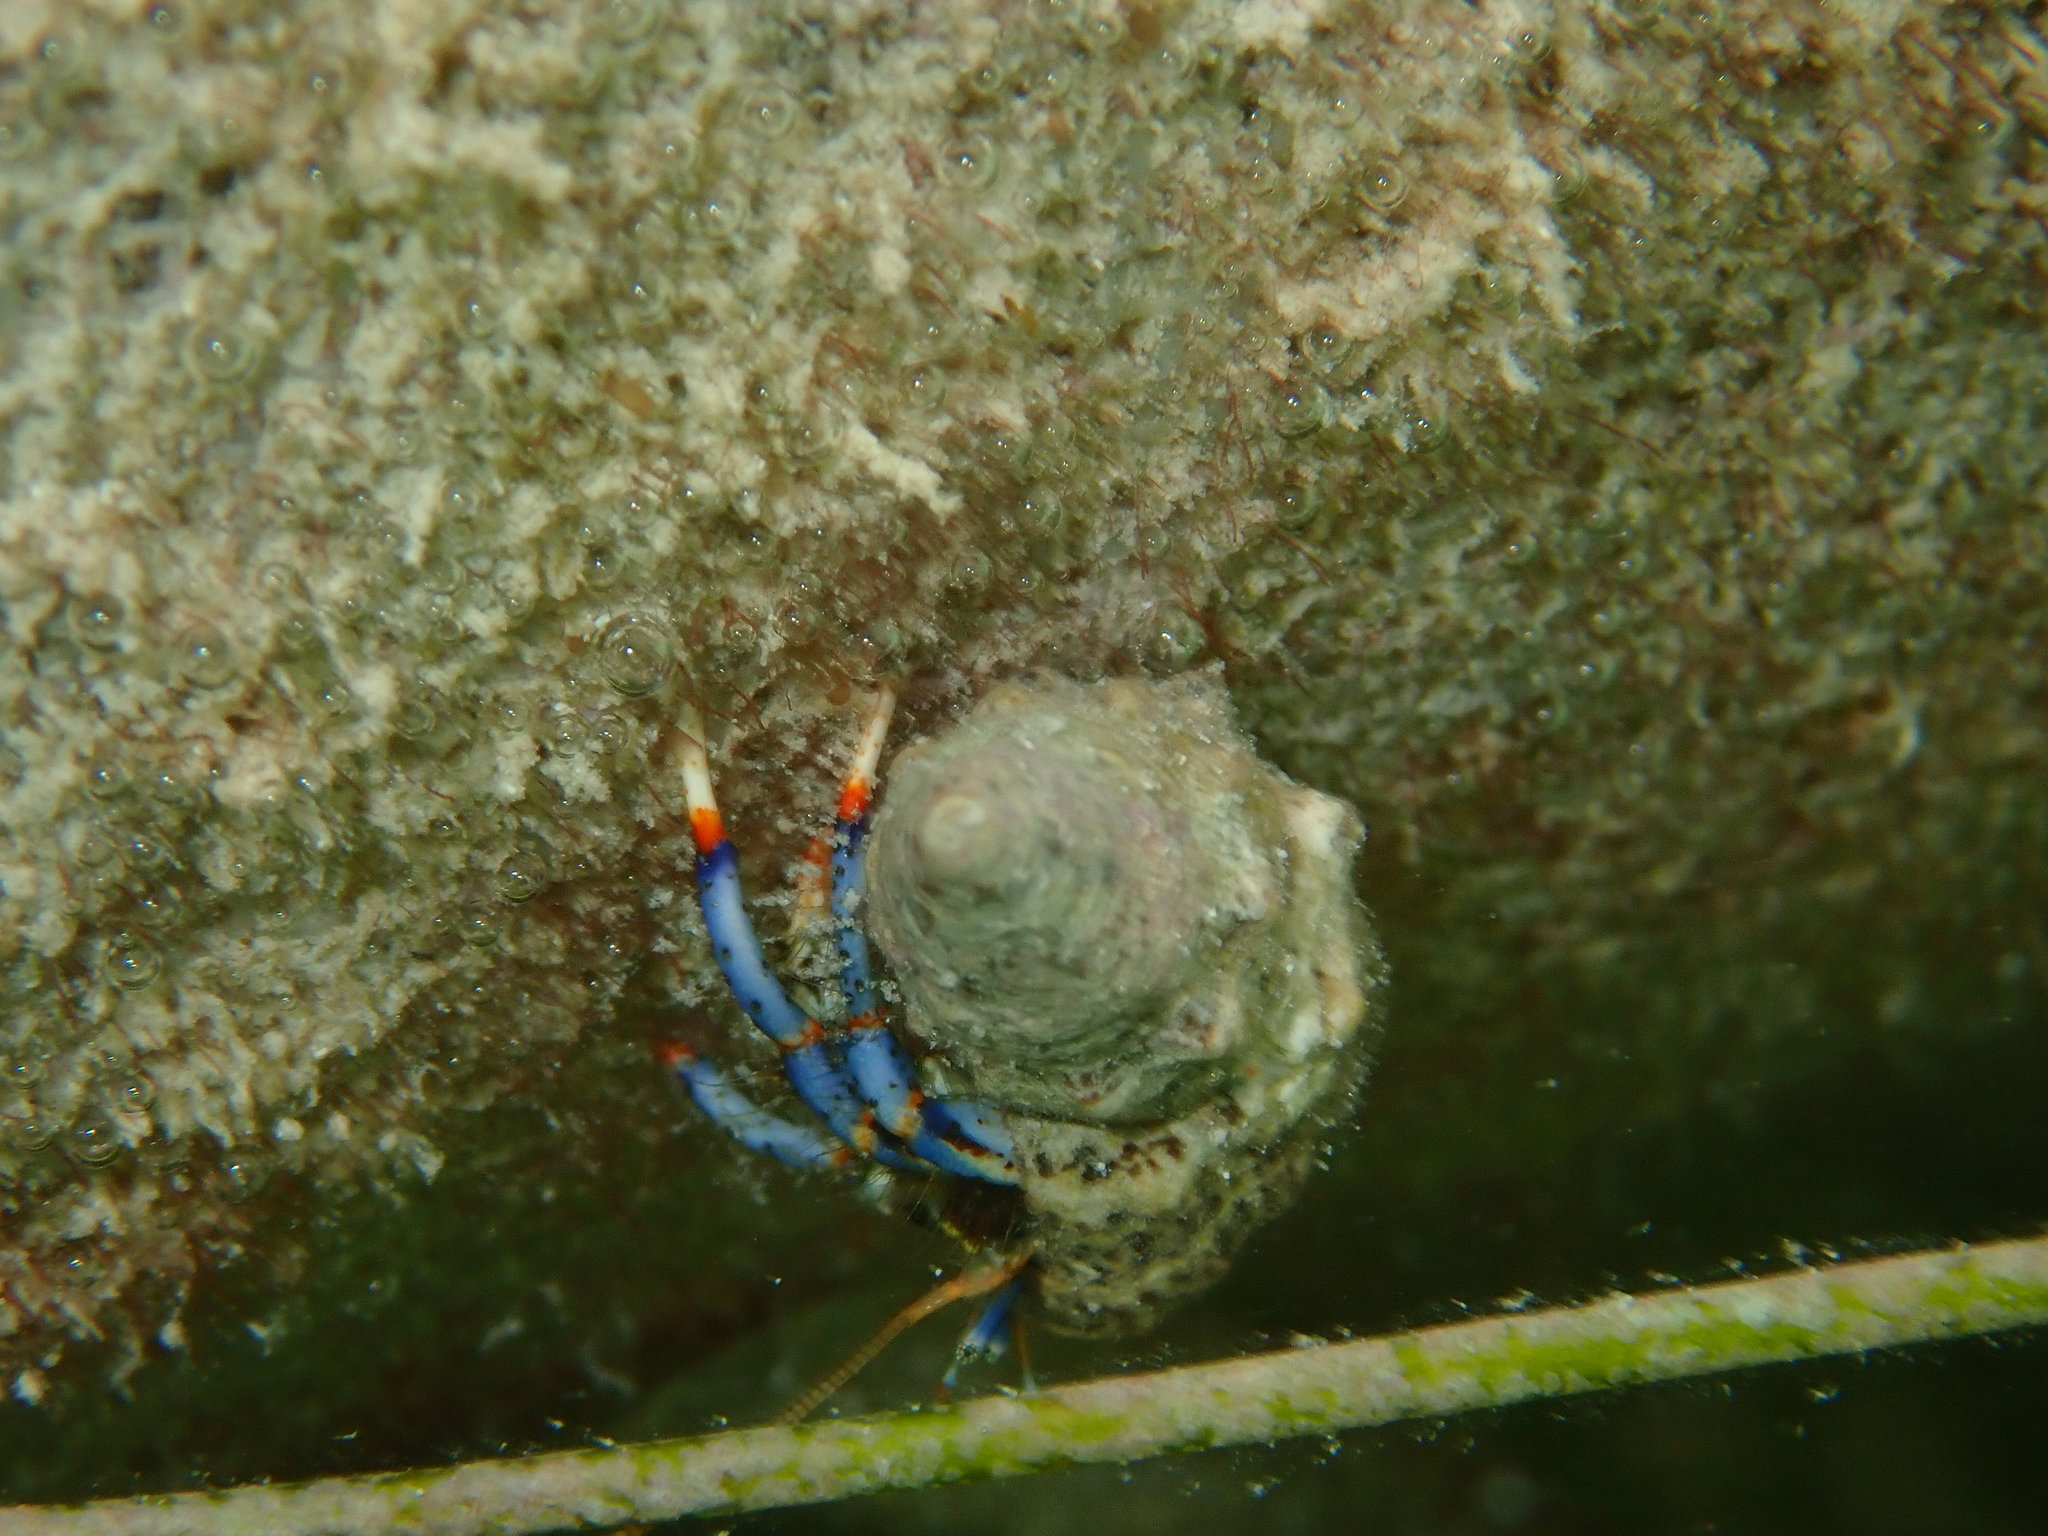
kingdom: Animalia
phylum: Arthropoda
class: Malacostraca
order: Decapoda
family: Diogenidae
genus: Clibanarius
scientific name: Clibanarius tricolor
